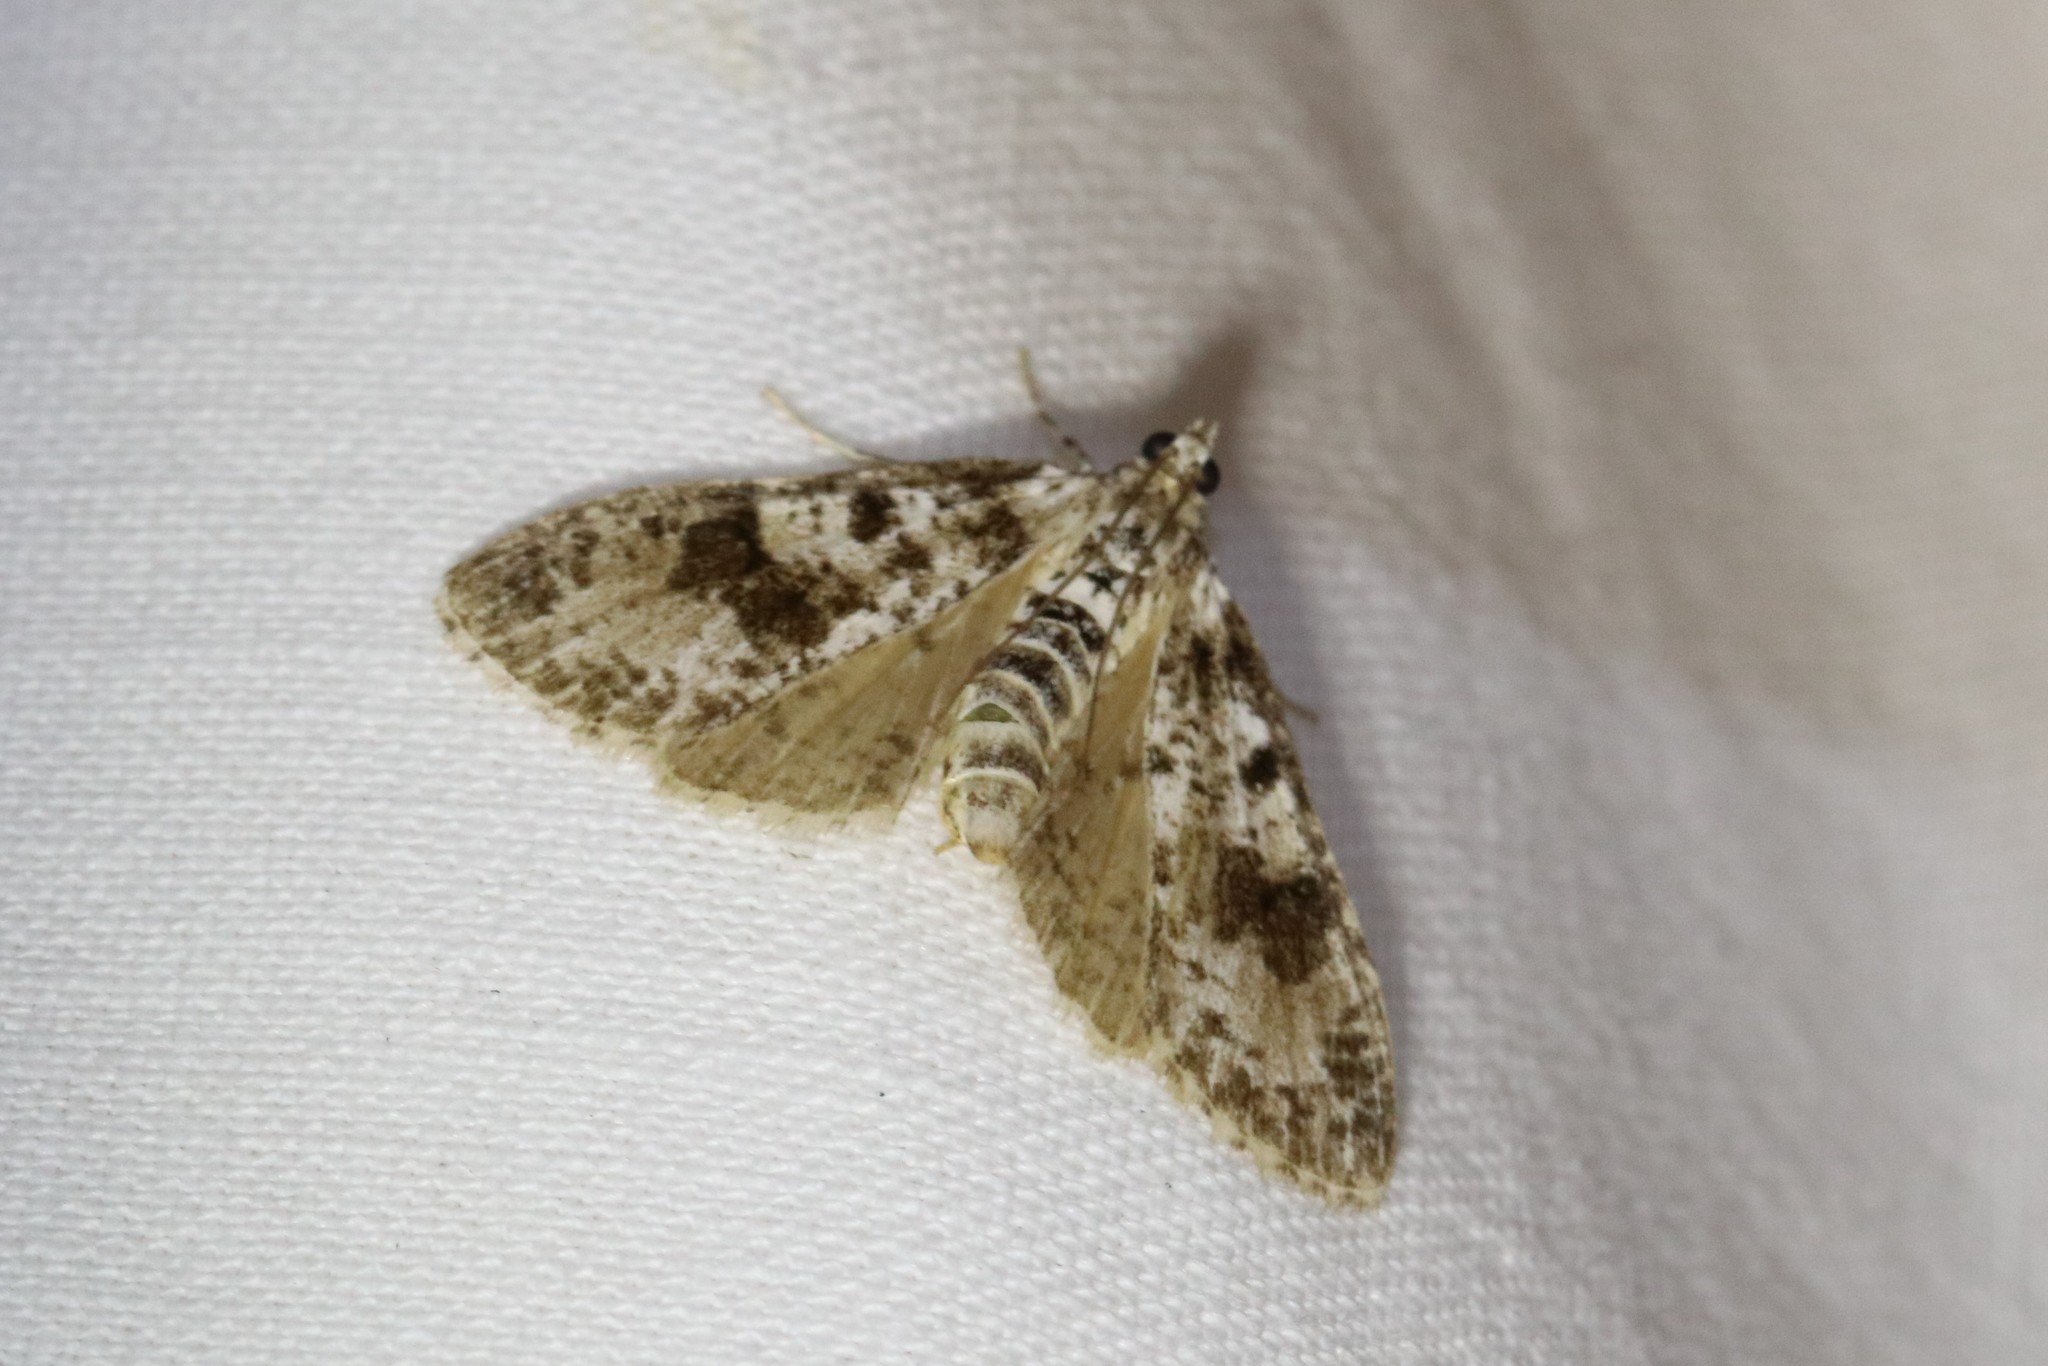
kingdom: Animalia
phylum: Arthropoda
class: Insecta
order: Lepidoptera
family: Crambidae
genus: Palpita
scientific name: Palpita magniferalis
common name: Splendid palpita moth
